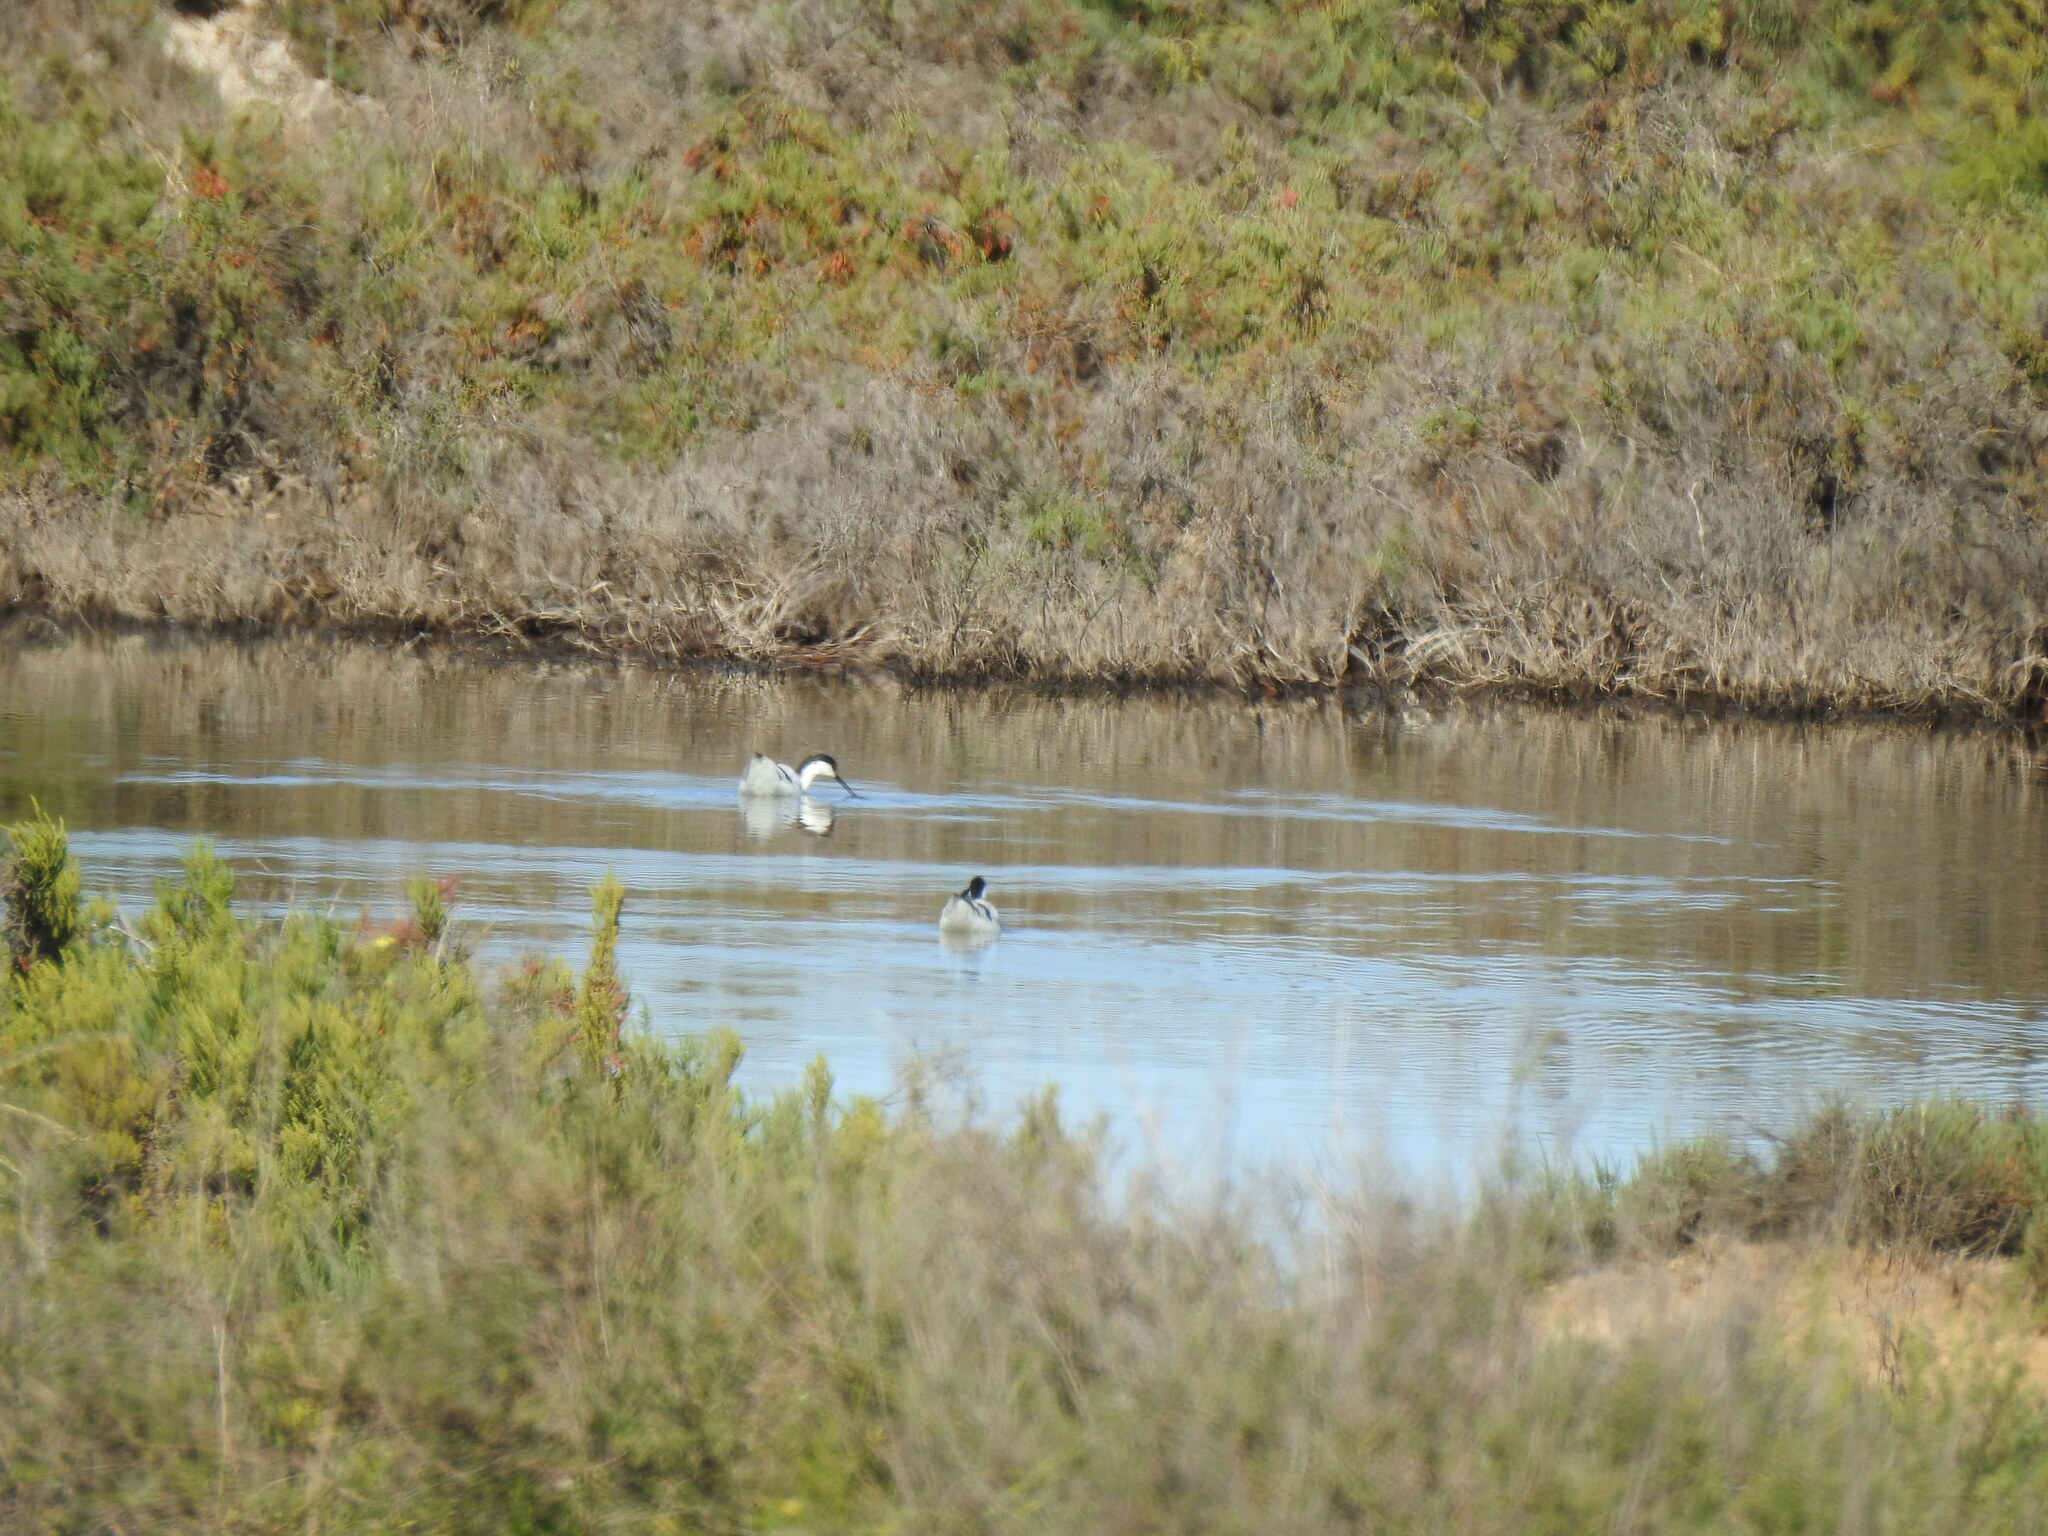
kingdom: Animalia
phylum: Chordata
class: Aves
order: Charadriiformes
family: Recurvirostridae
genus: Recurvirostra
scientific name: Recurvirostra avosetta
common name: Pied avocet
